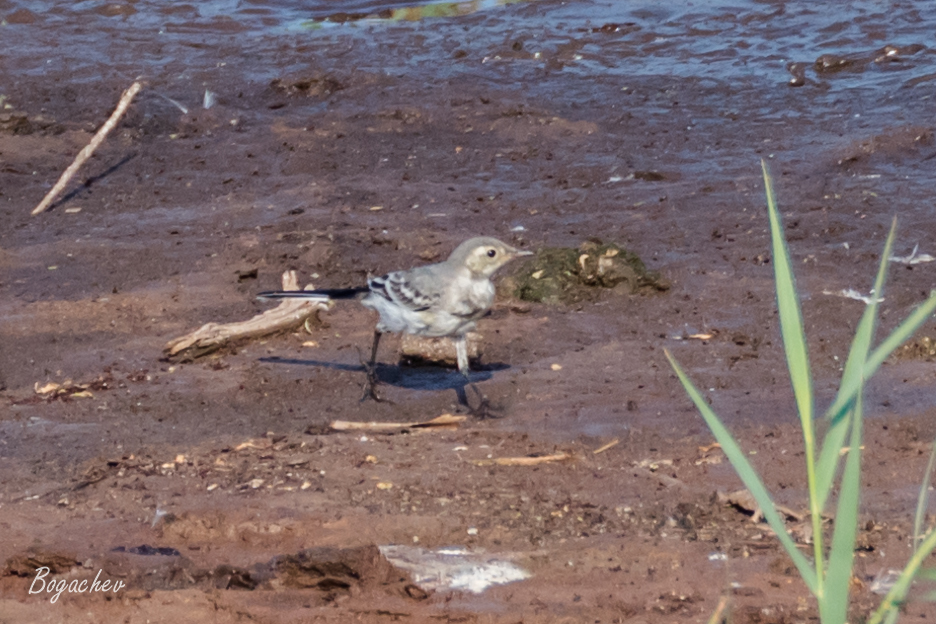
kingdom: Animalia
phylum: Chordata
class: Aves
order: Passeriformes
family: Motacillidae
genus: Motacilla
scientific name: Motacilla alba
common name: White wagtail
